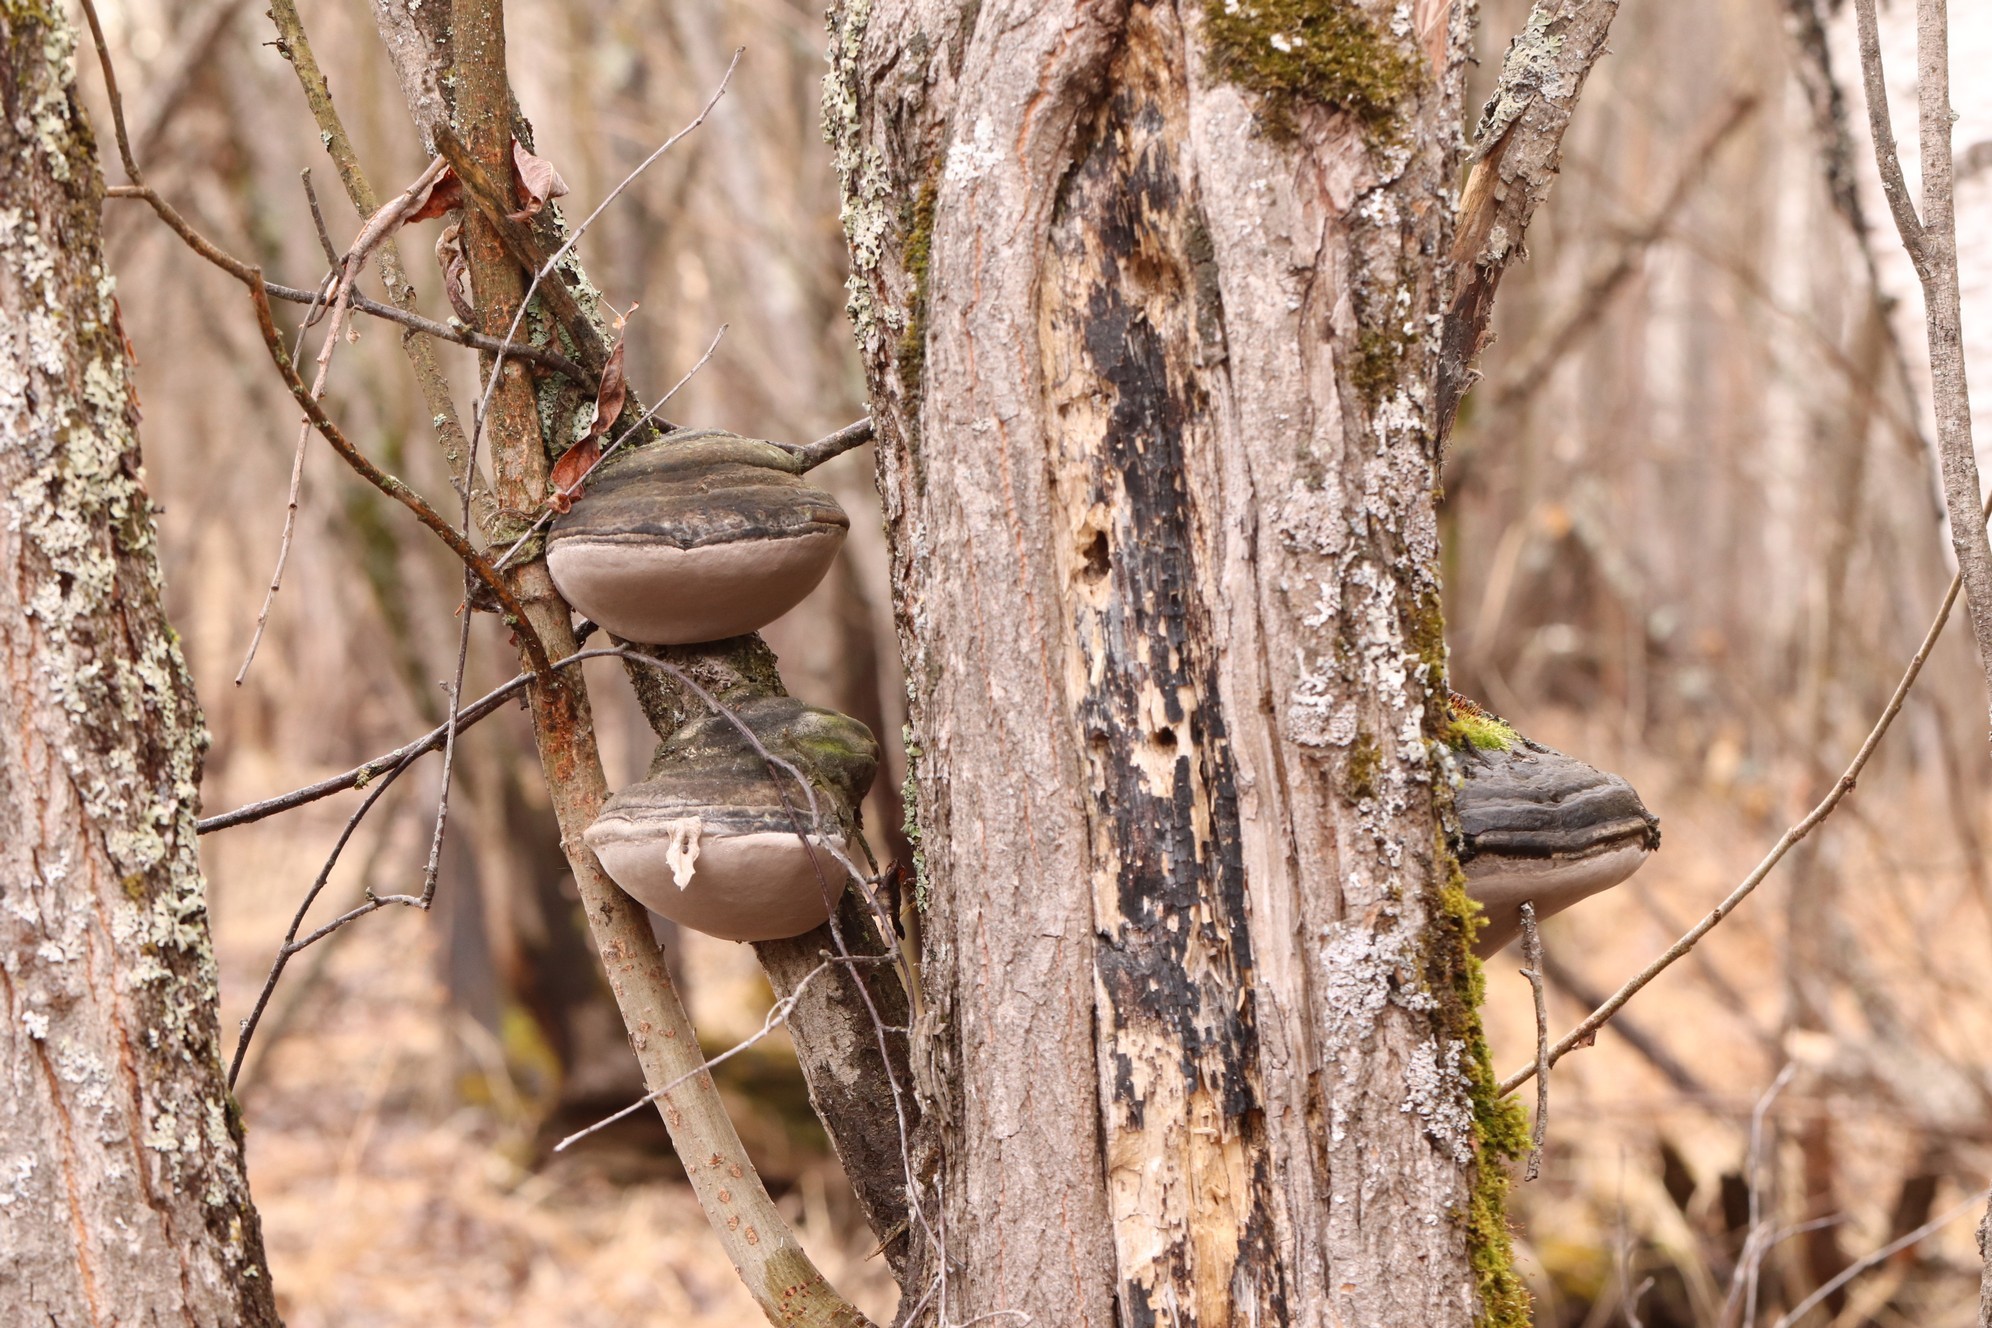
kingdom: Fungi
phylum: Basidiomycota
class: Agaricomycetes
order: Hymenochaetales
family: Hymenochaetaceae
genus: Phellinus
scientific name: Phellinus igniarius
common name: Willow bracket
